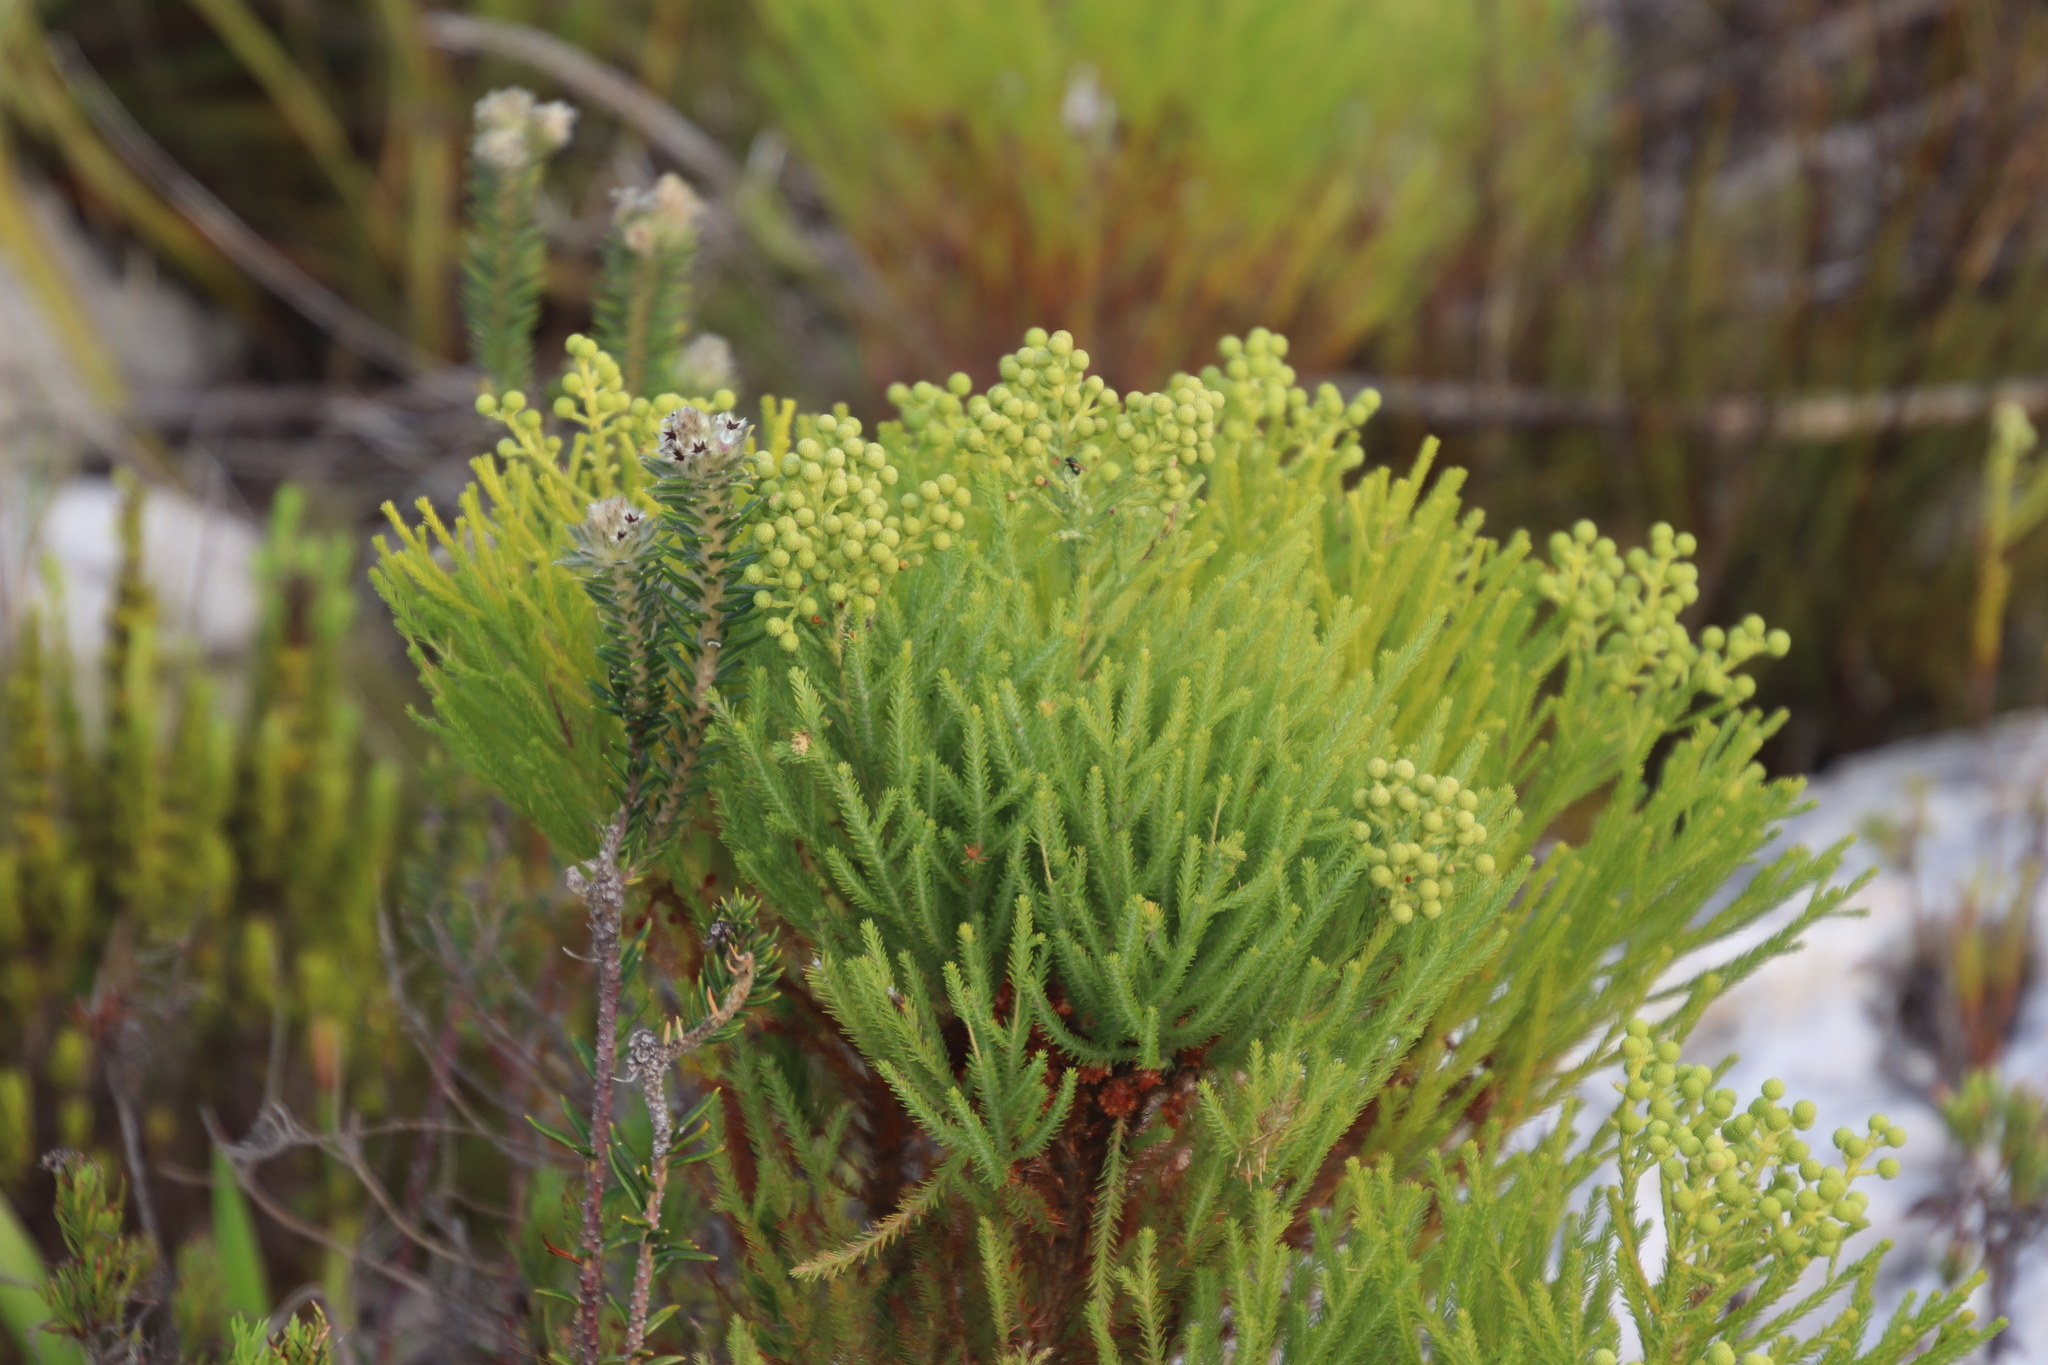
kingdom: Plantae
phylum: Tracheophyta
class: Magnoliopsida
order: Bruniales
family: Bruniaceae
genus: Berzelia
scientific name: Berzelia lanuginosa
